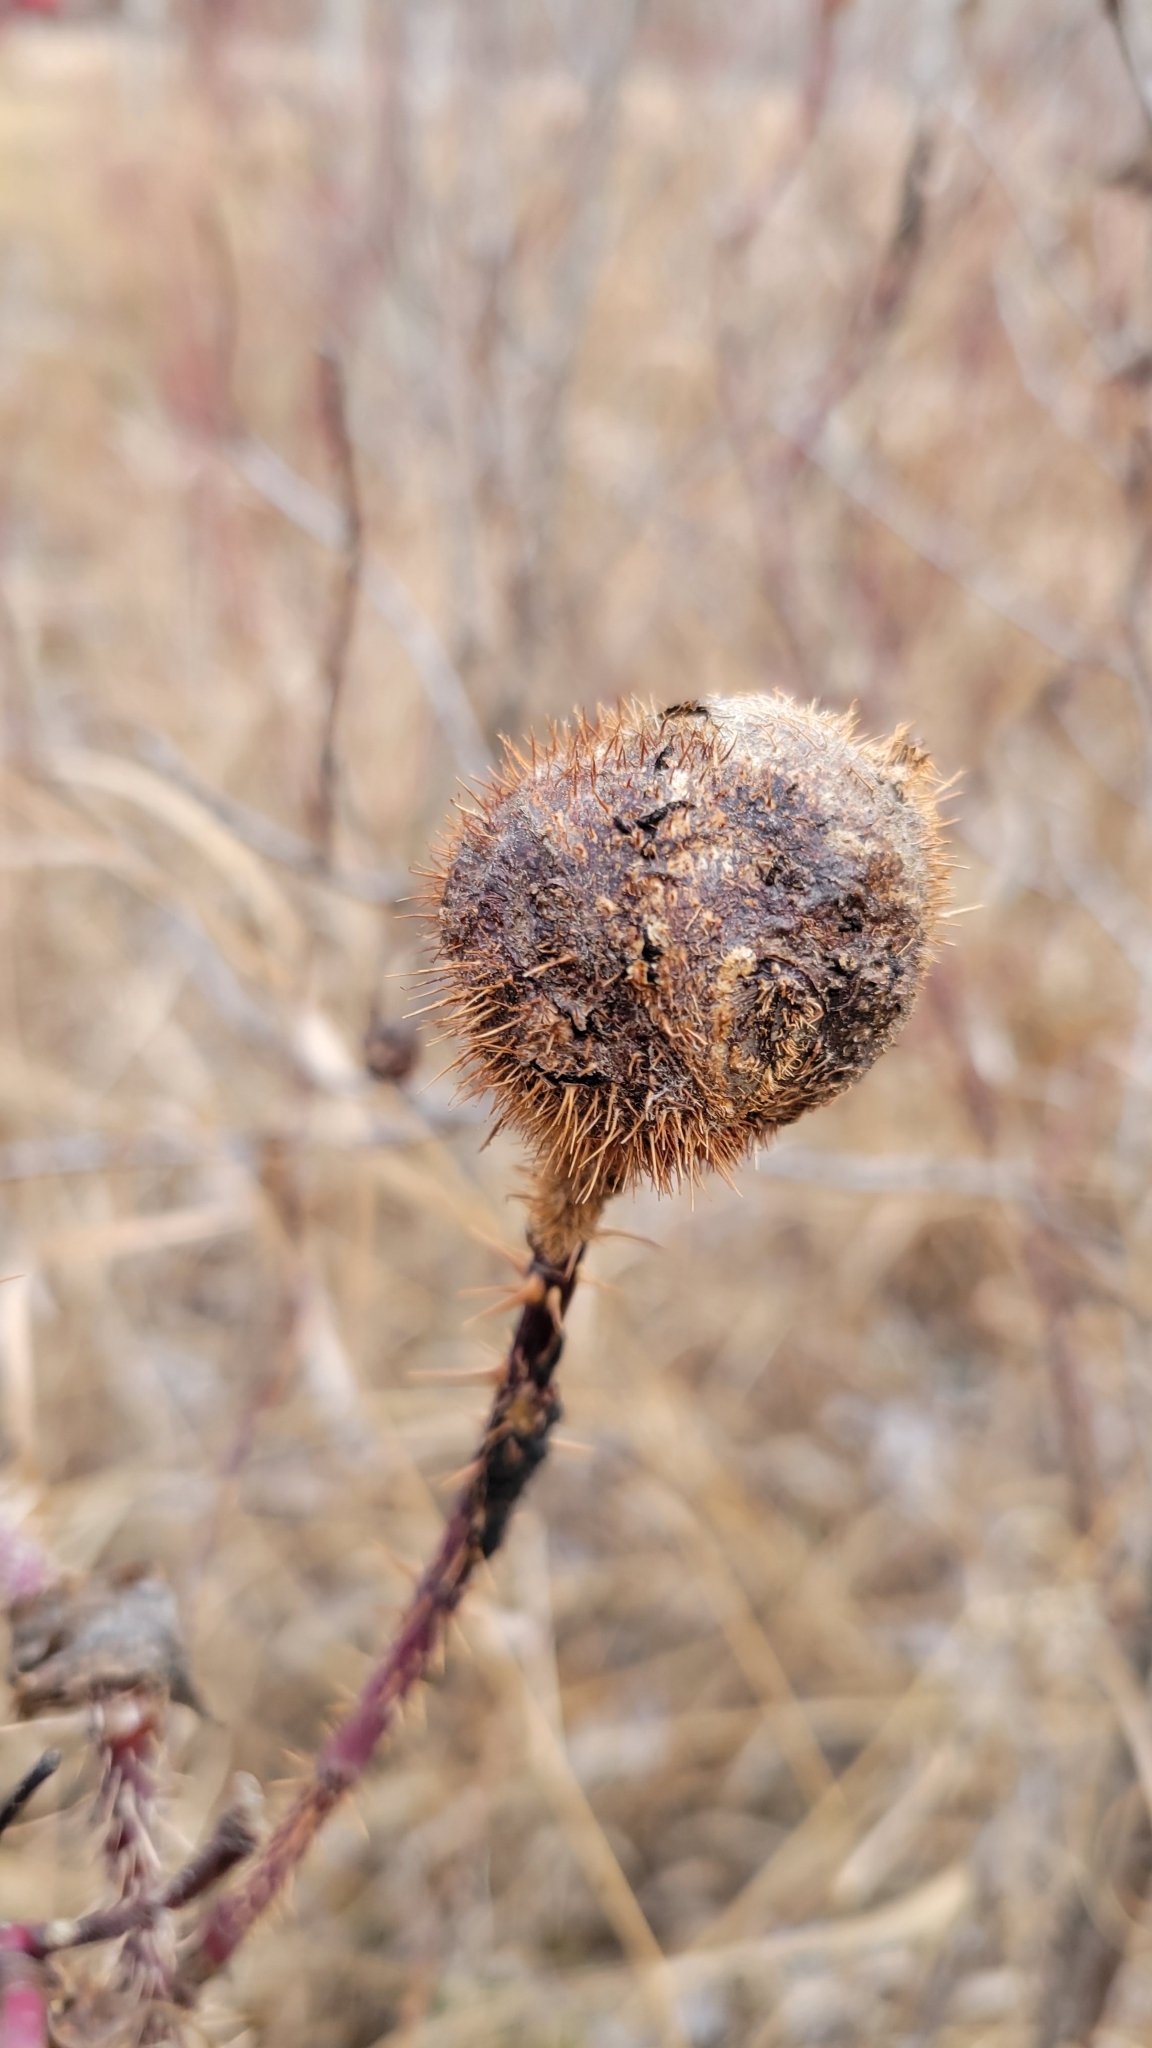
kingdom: Animalia
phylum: Arthropoda
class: Insecta
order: Hymenoptera
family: Cynipidae
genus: Diplolepis
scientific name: Diplolepis spinosa
